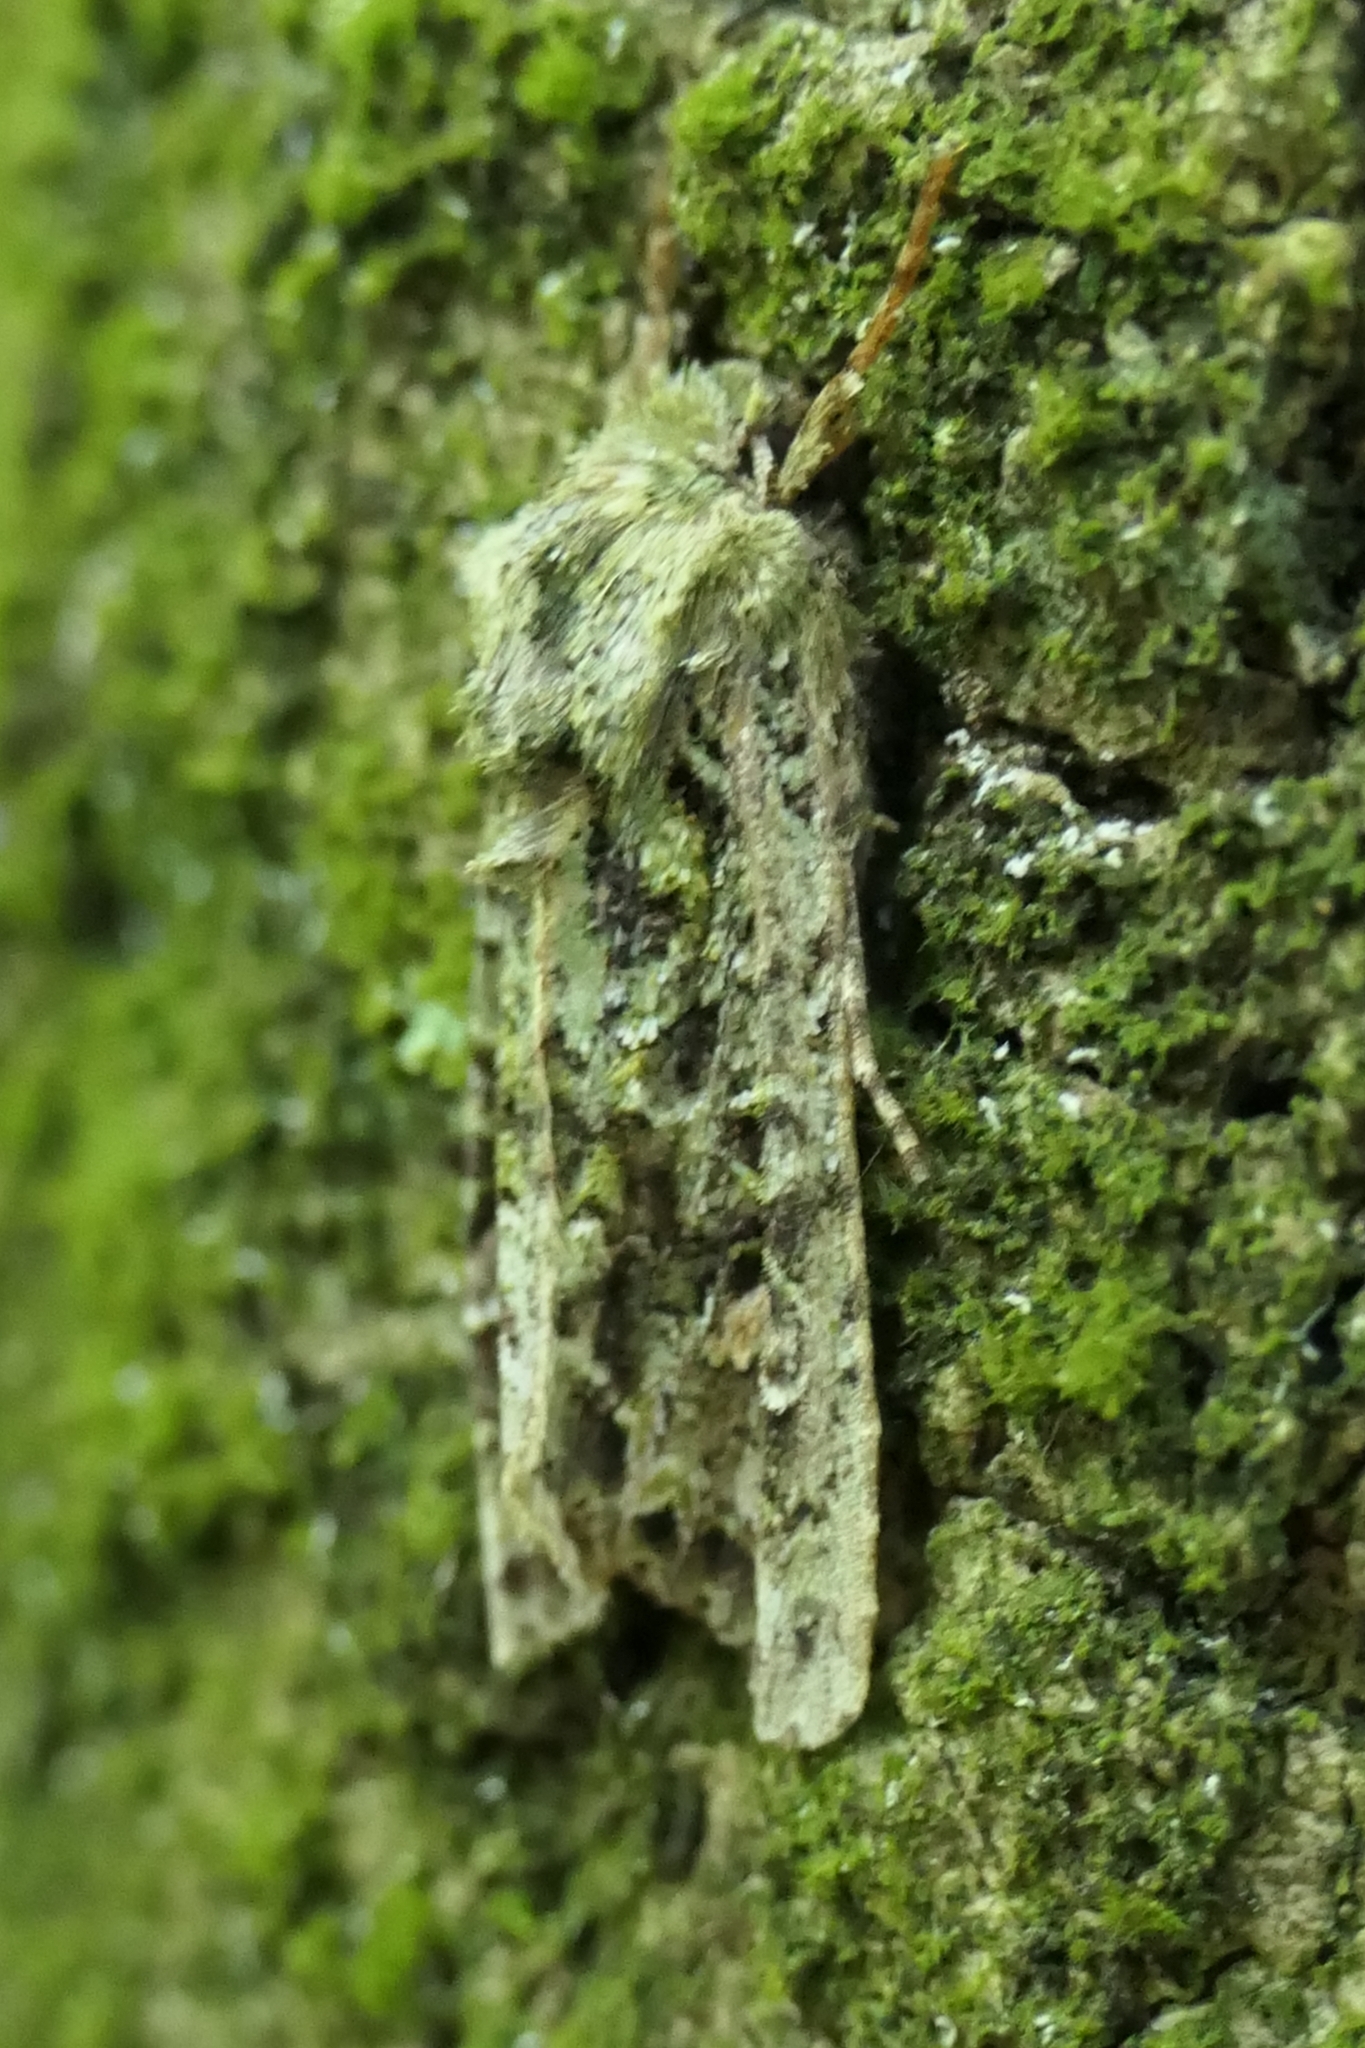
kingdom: Animalia
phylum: Arthropoda
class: Insecta
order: Lepidoptera
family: Noctuidae
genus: Ichneutica
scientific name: Ichneutica
